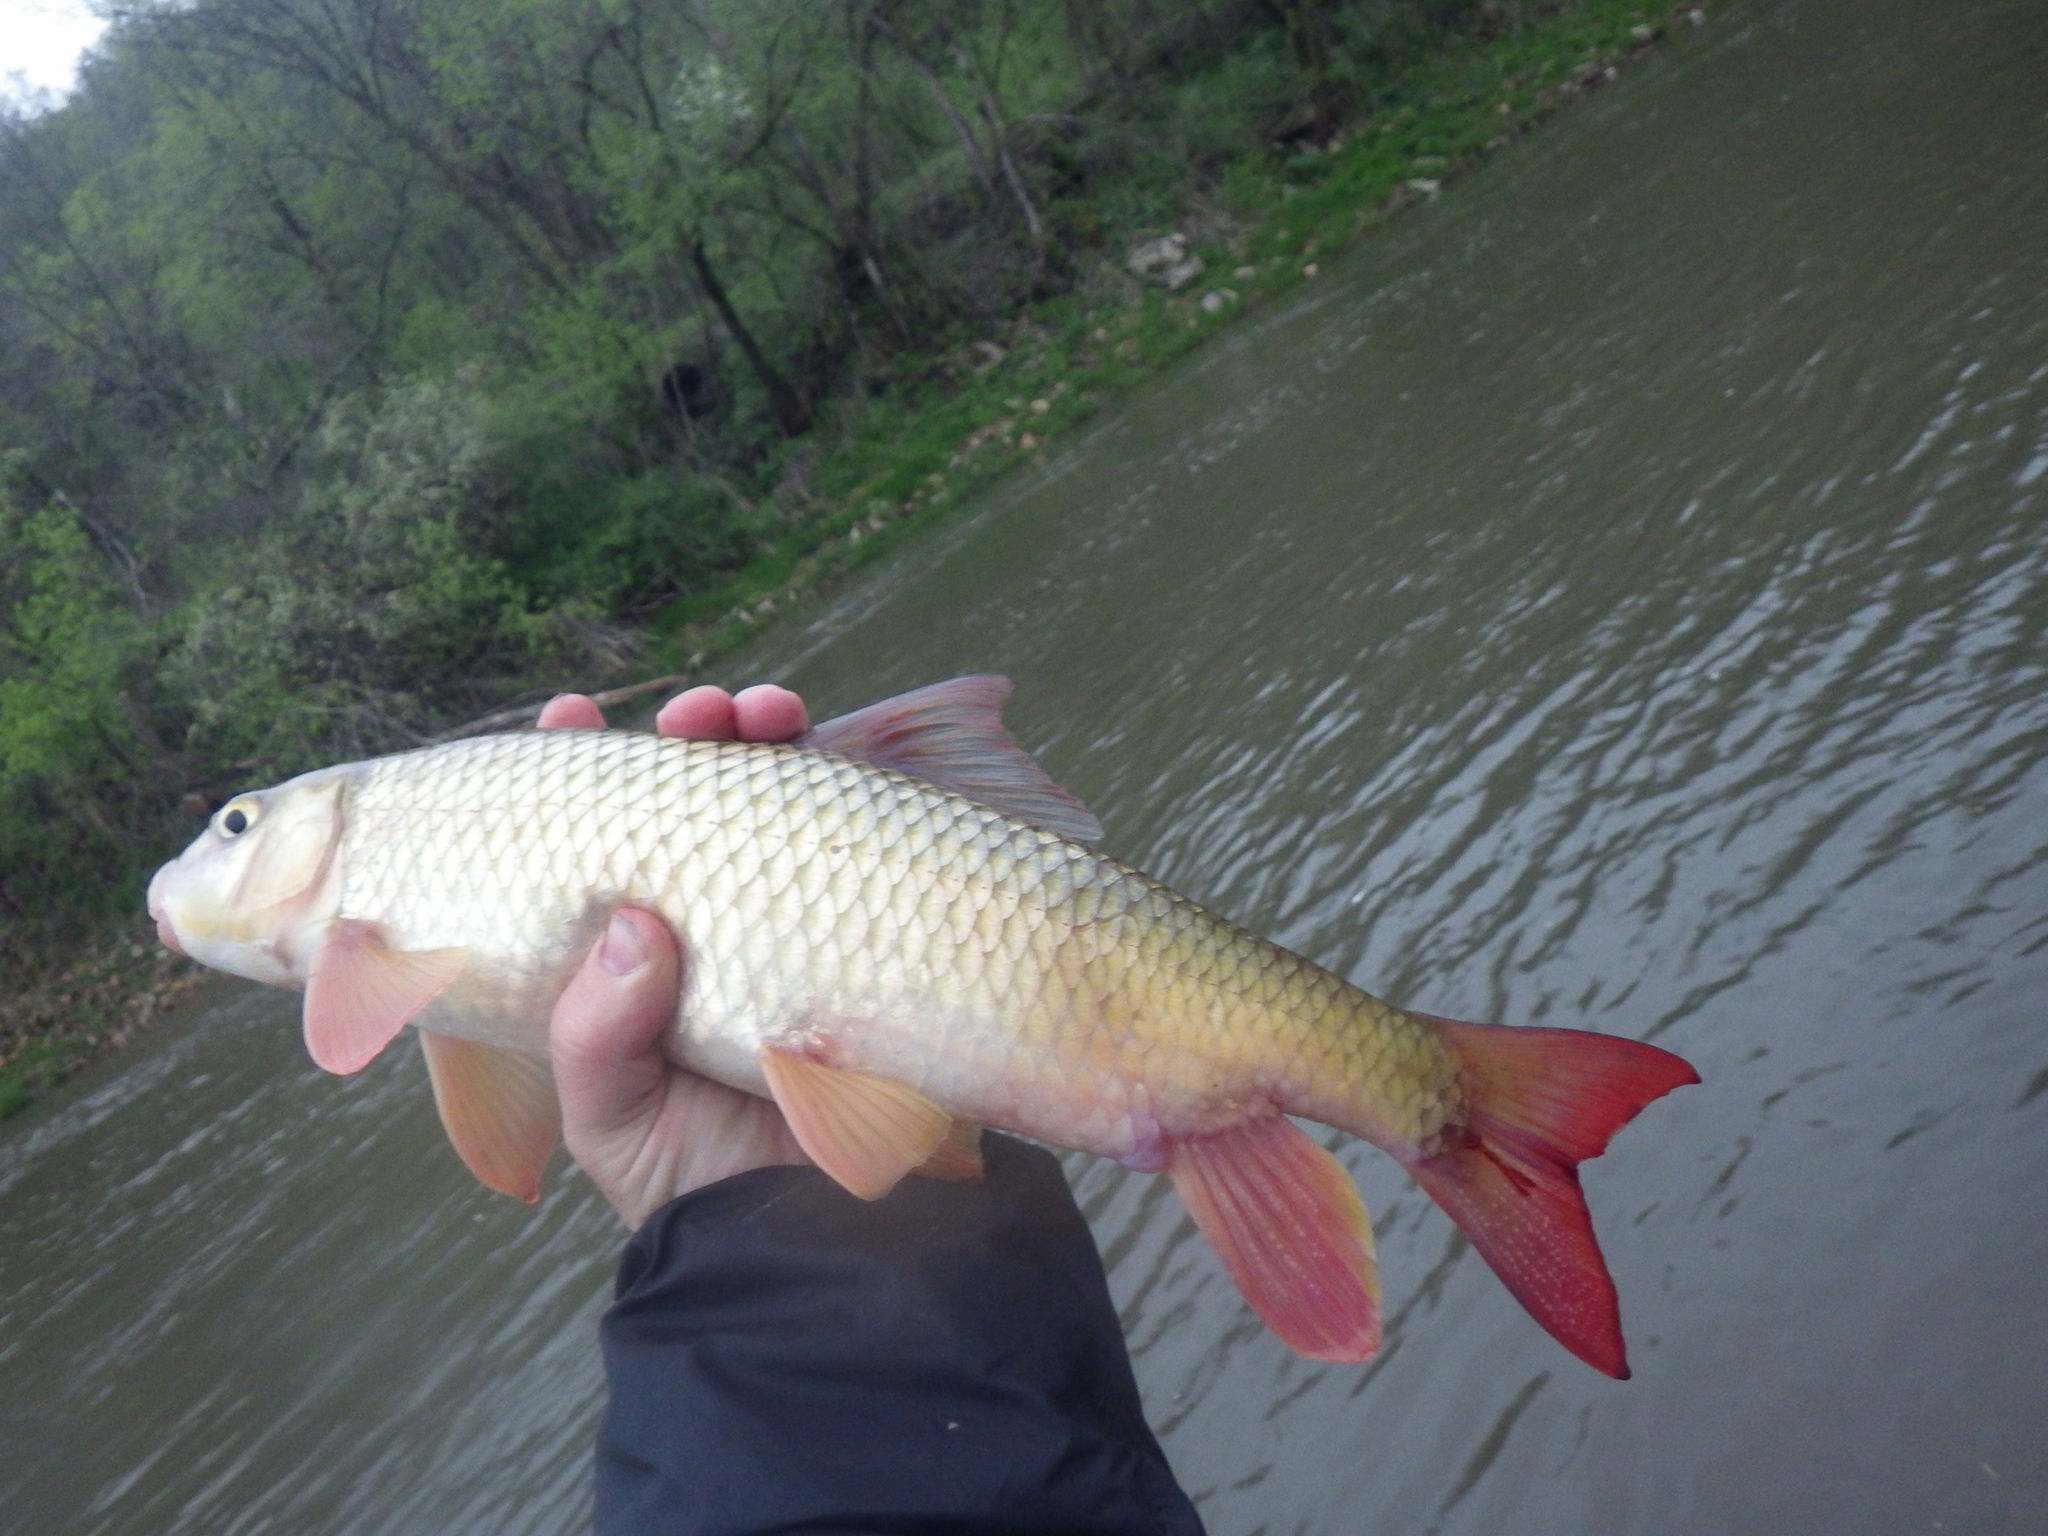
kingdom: Animalia
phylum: Chordata
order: Cypriniformes
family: Catostomidae
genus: Moxostoma
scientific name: Moxostoma macrolepidotum
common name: Shorthead redhorse
